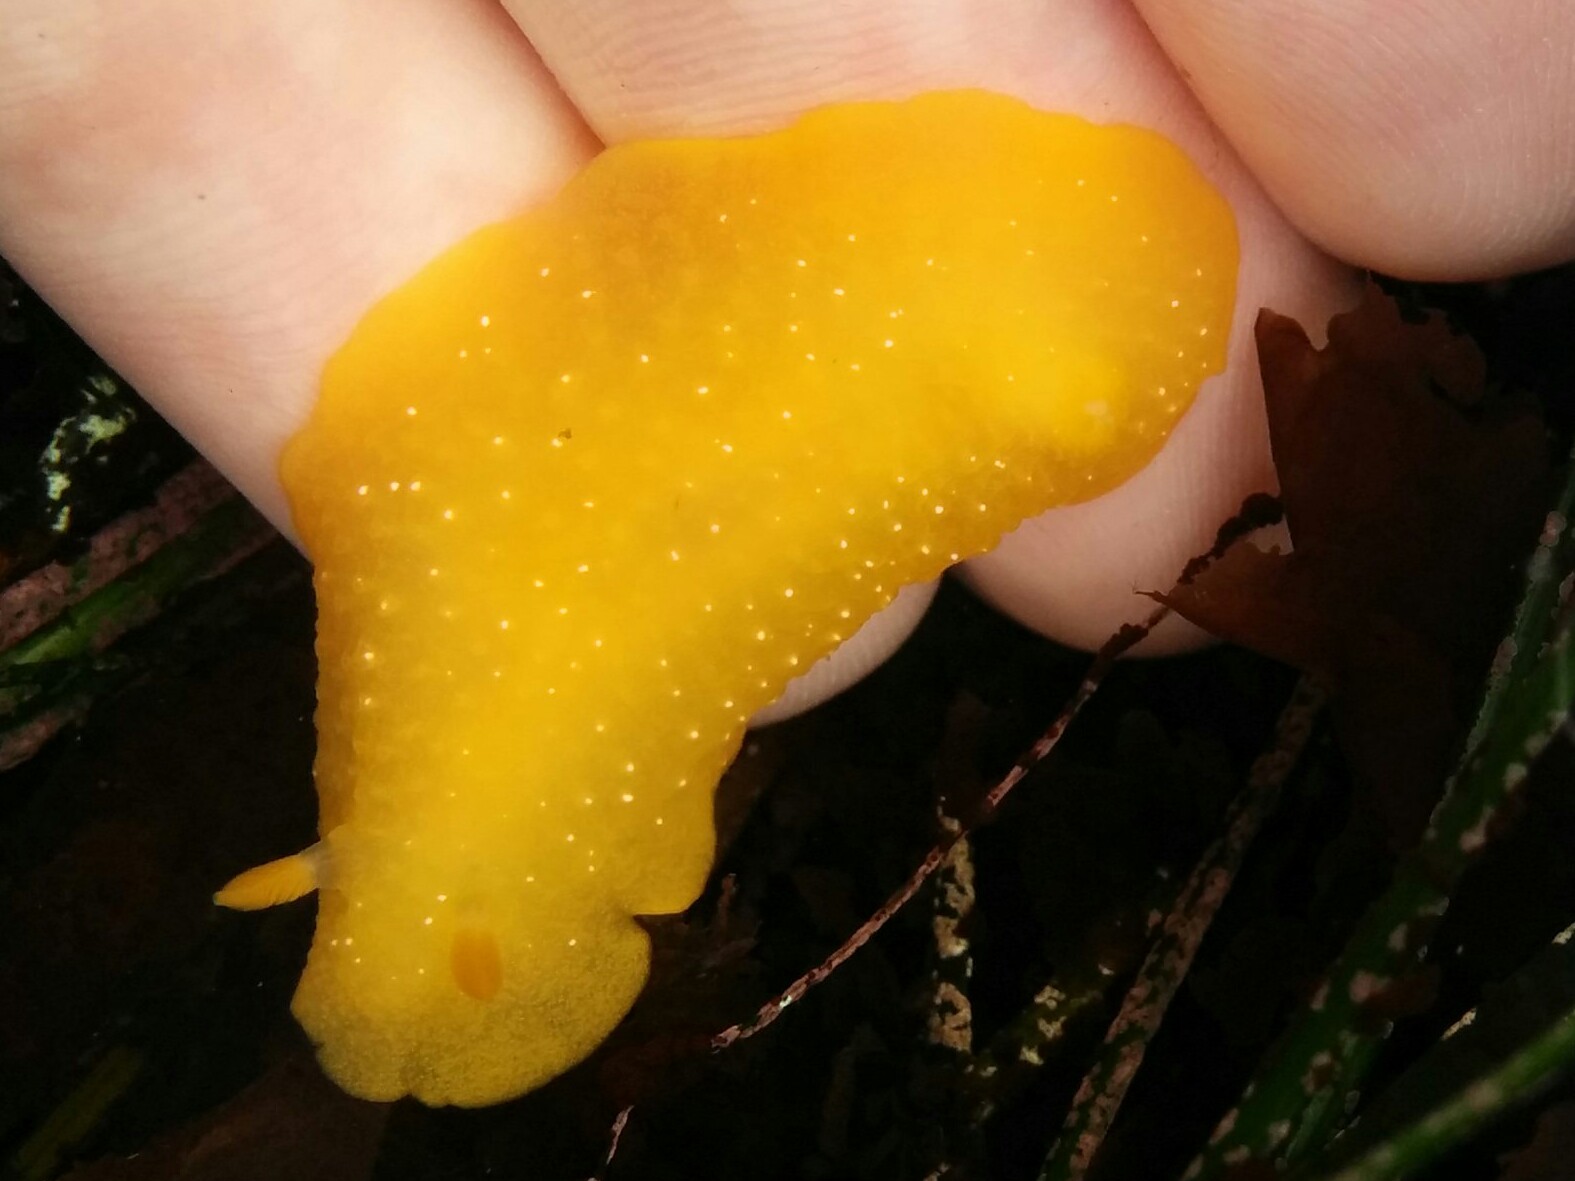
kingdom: Animalia
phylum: Mollusca
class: Gastropoda
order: Nudibranchia
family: Dendrodorididae
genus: Doriopsilla
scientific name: Doriopsilla fulva
